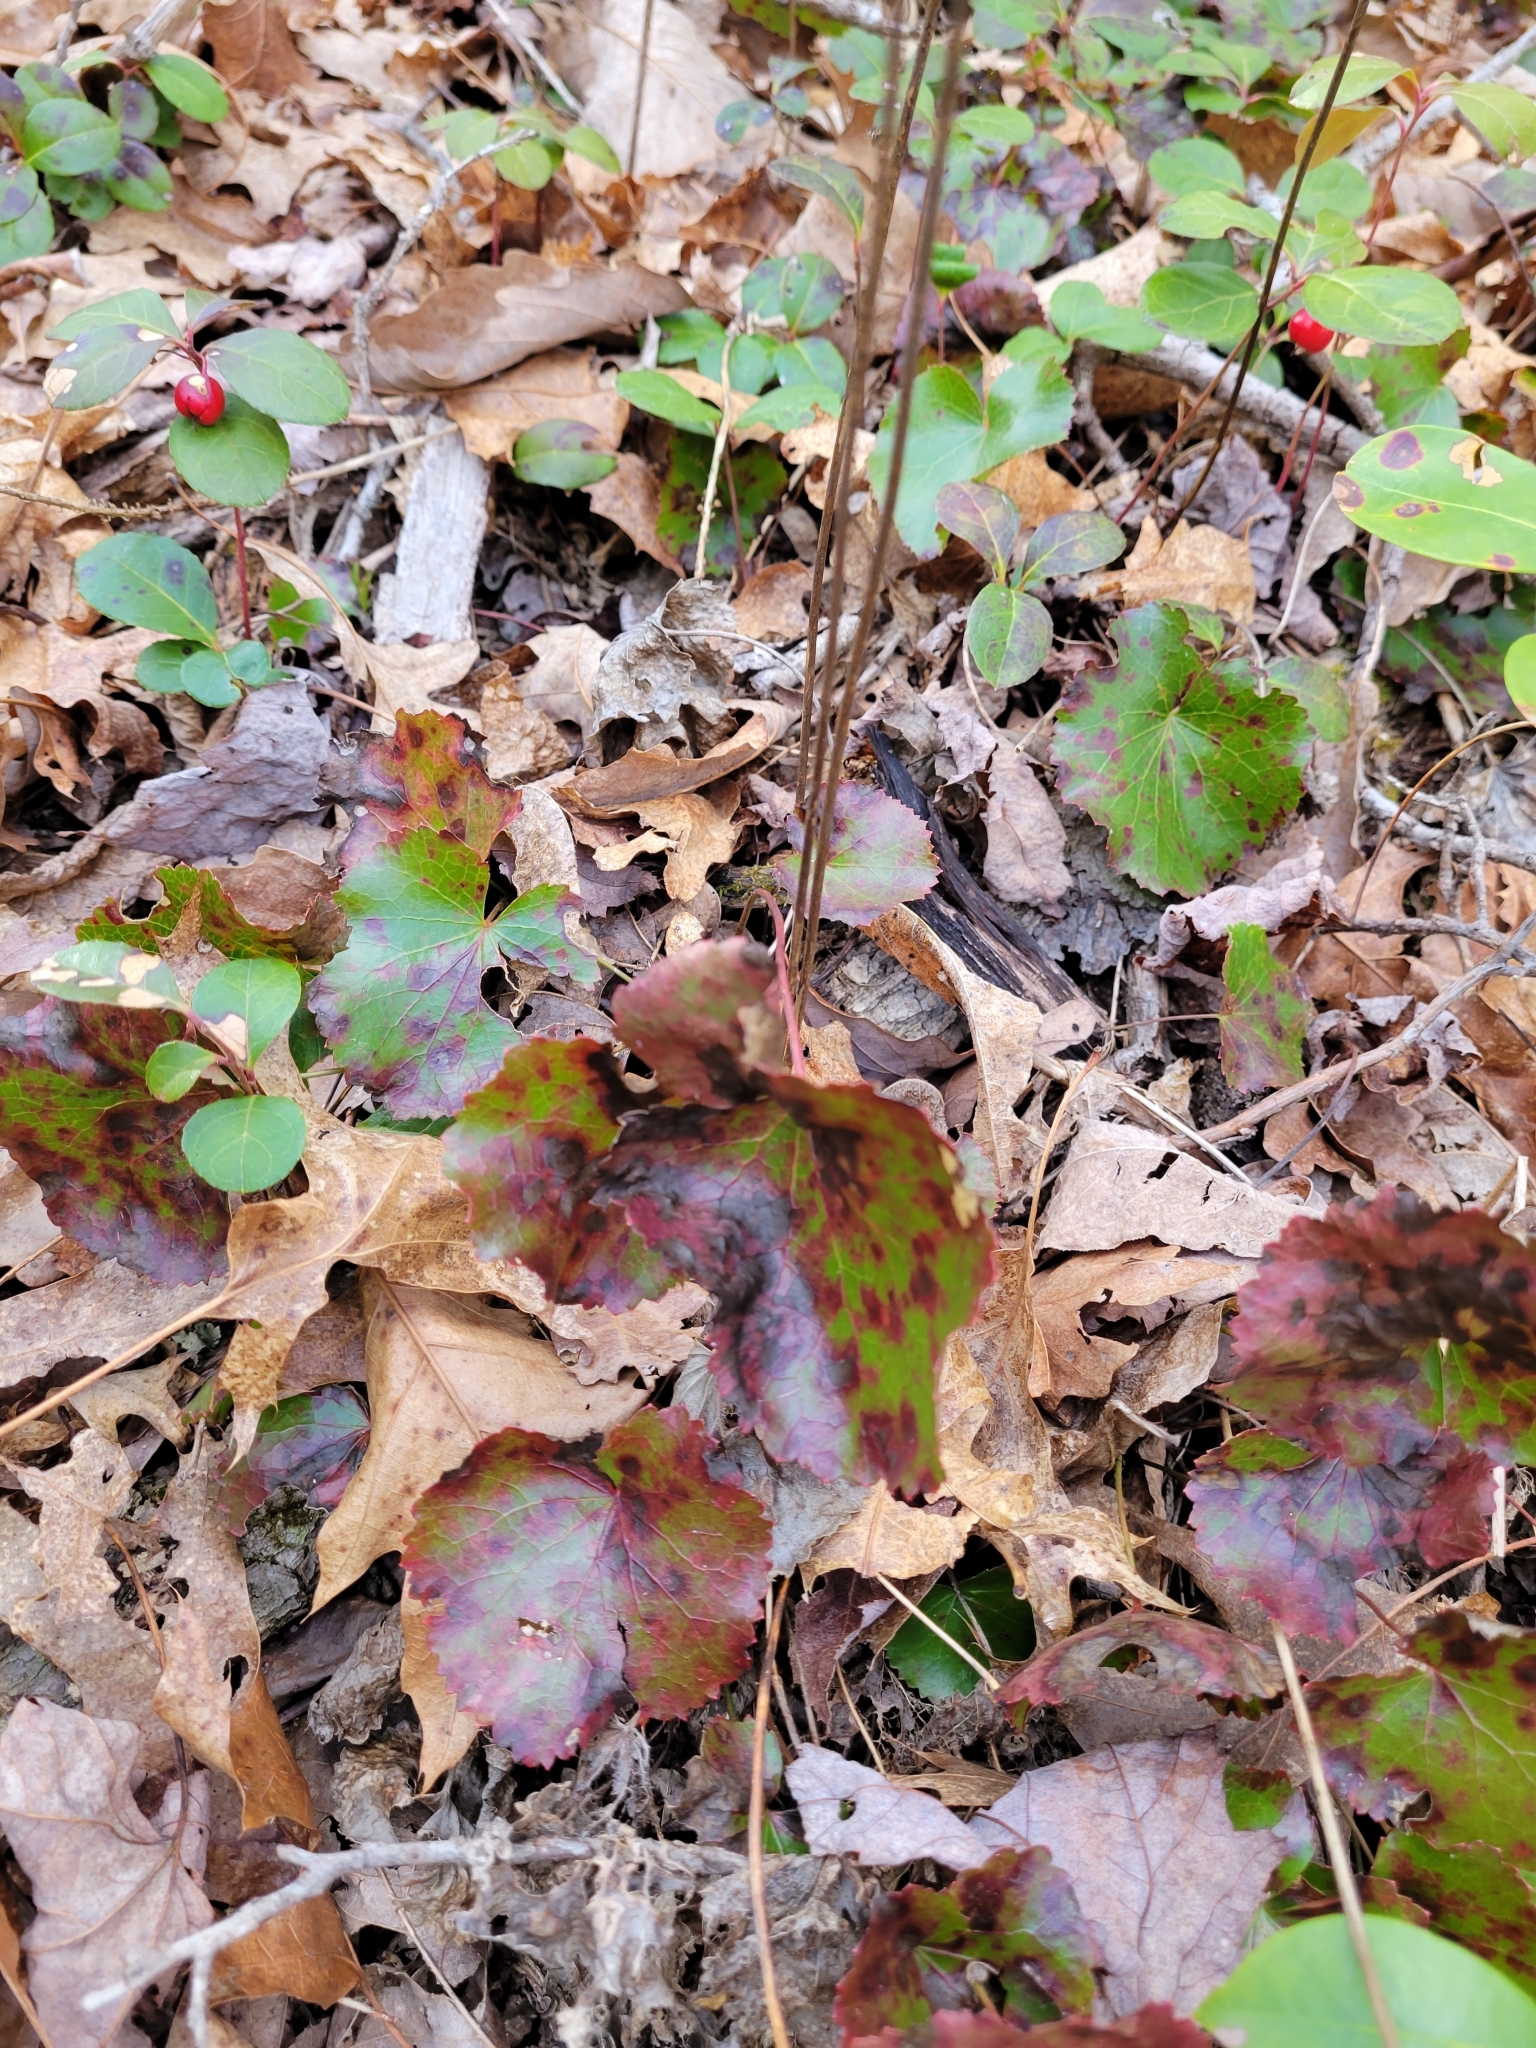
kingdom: Plantae
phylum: Tracheophyta
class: Magnoliopsida
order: Ericales
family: Diapensiaceae
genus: Galax
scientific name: Galax urceolata
